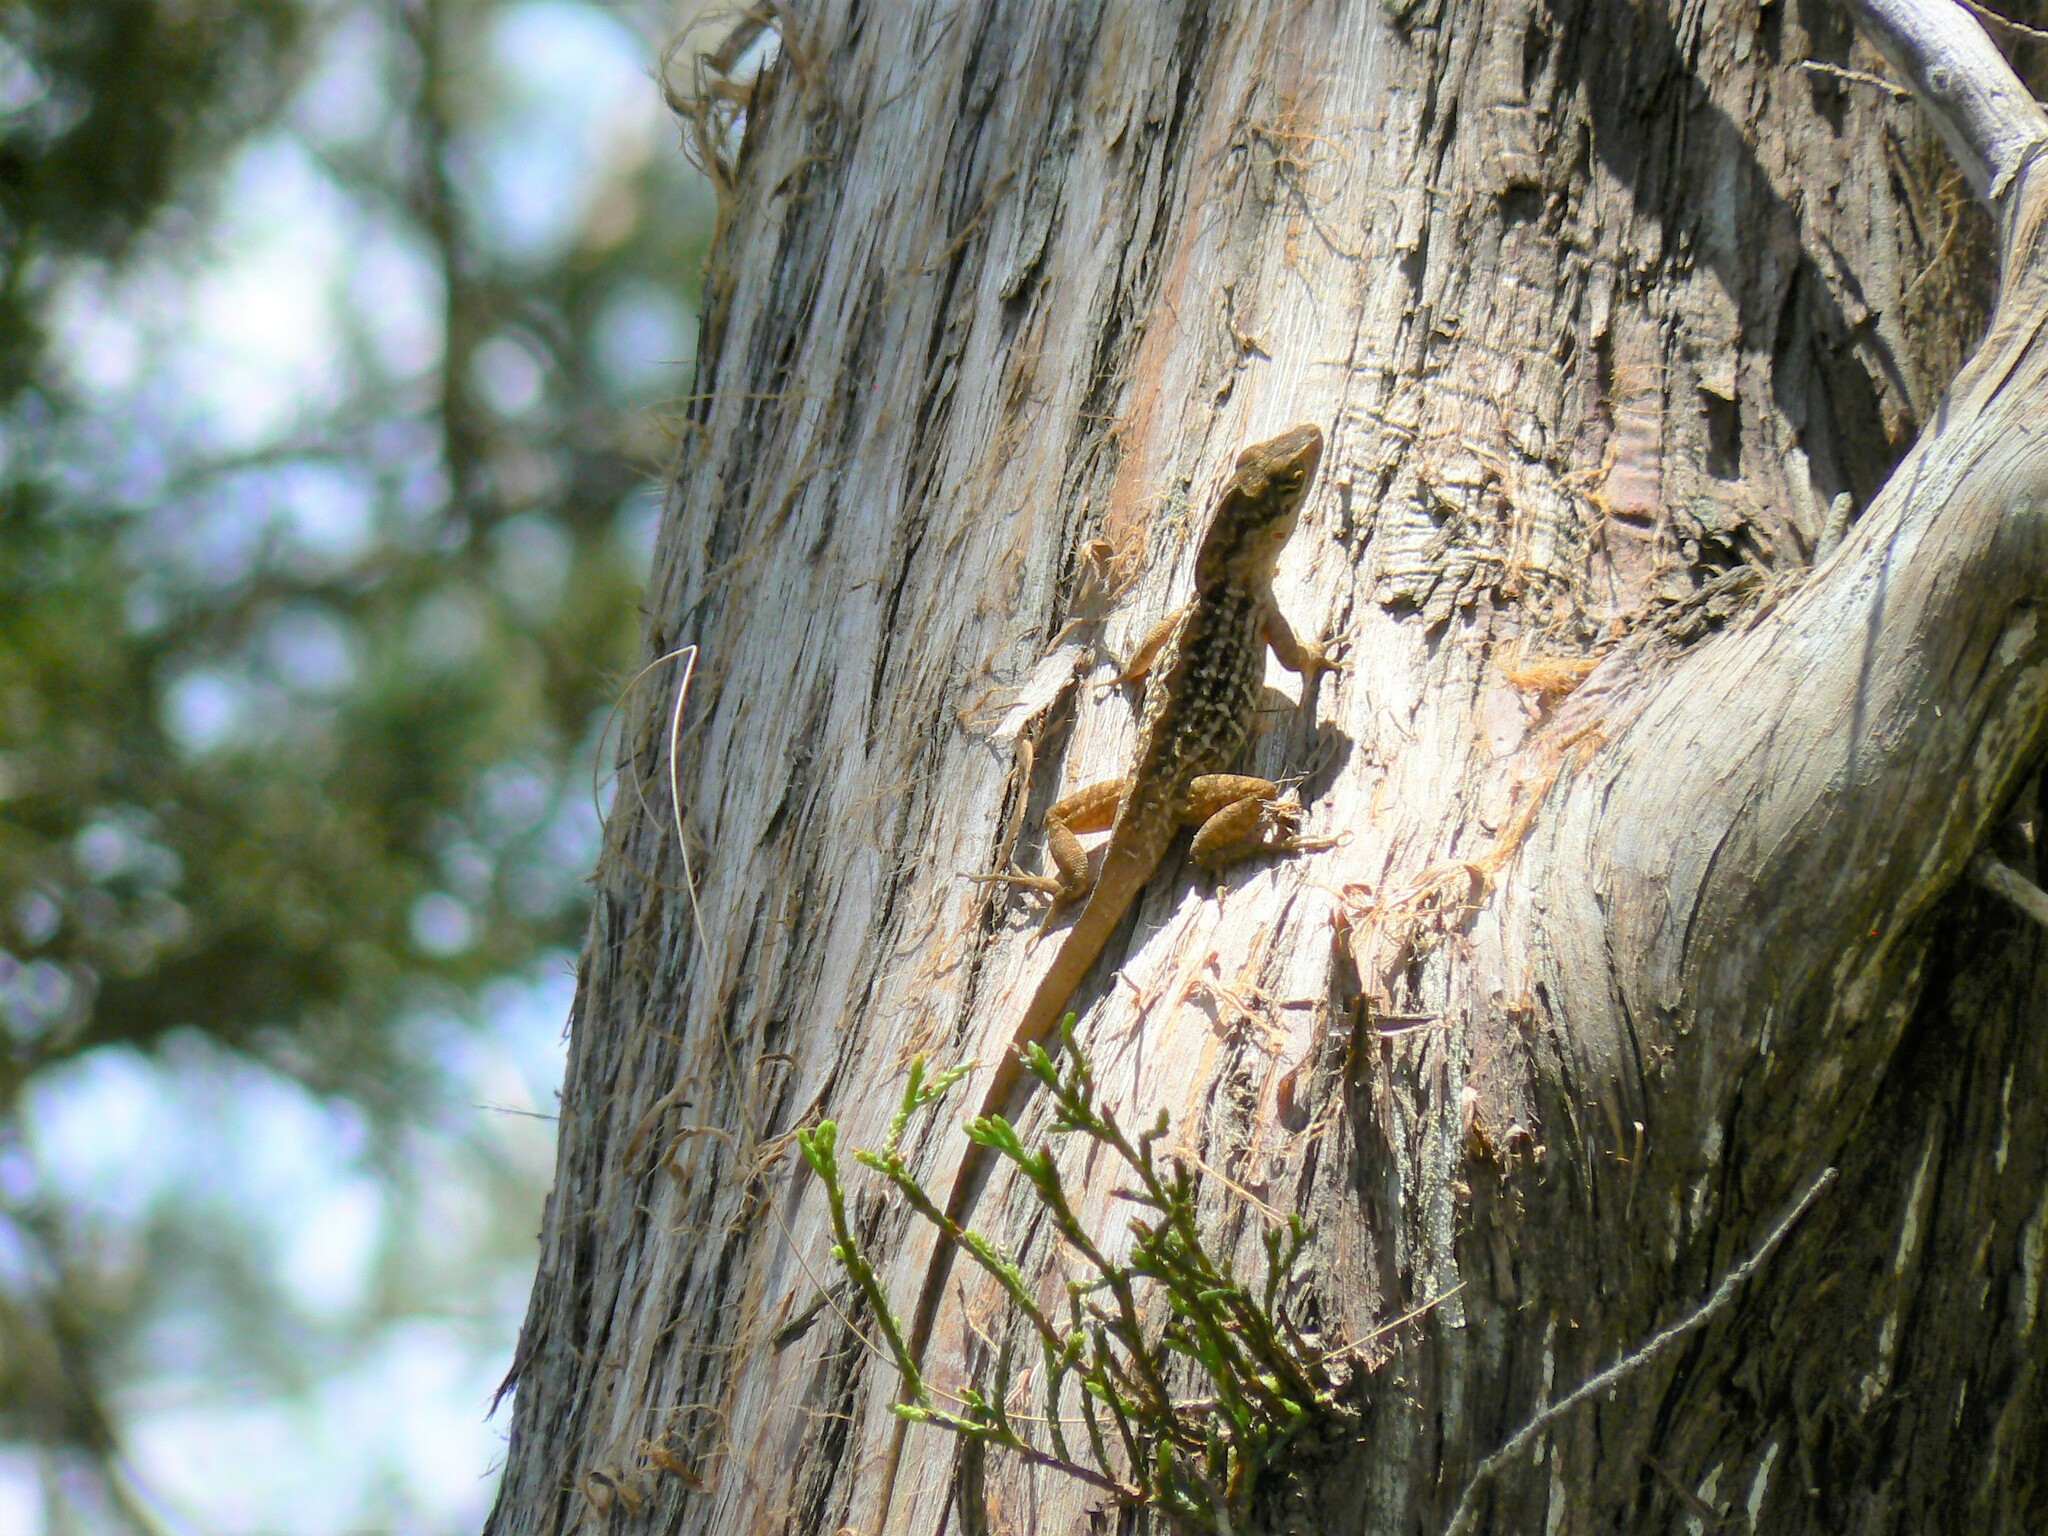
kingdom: Animalia
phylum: Chordata
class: Squamata
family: Dactyloidae
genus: Anolis
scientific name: Anolis sagrei
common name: Brown anole
